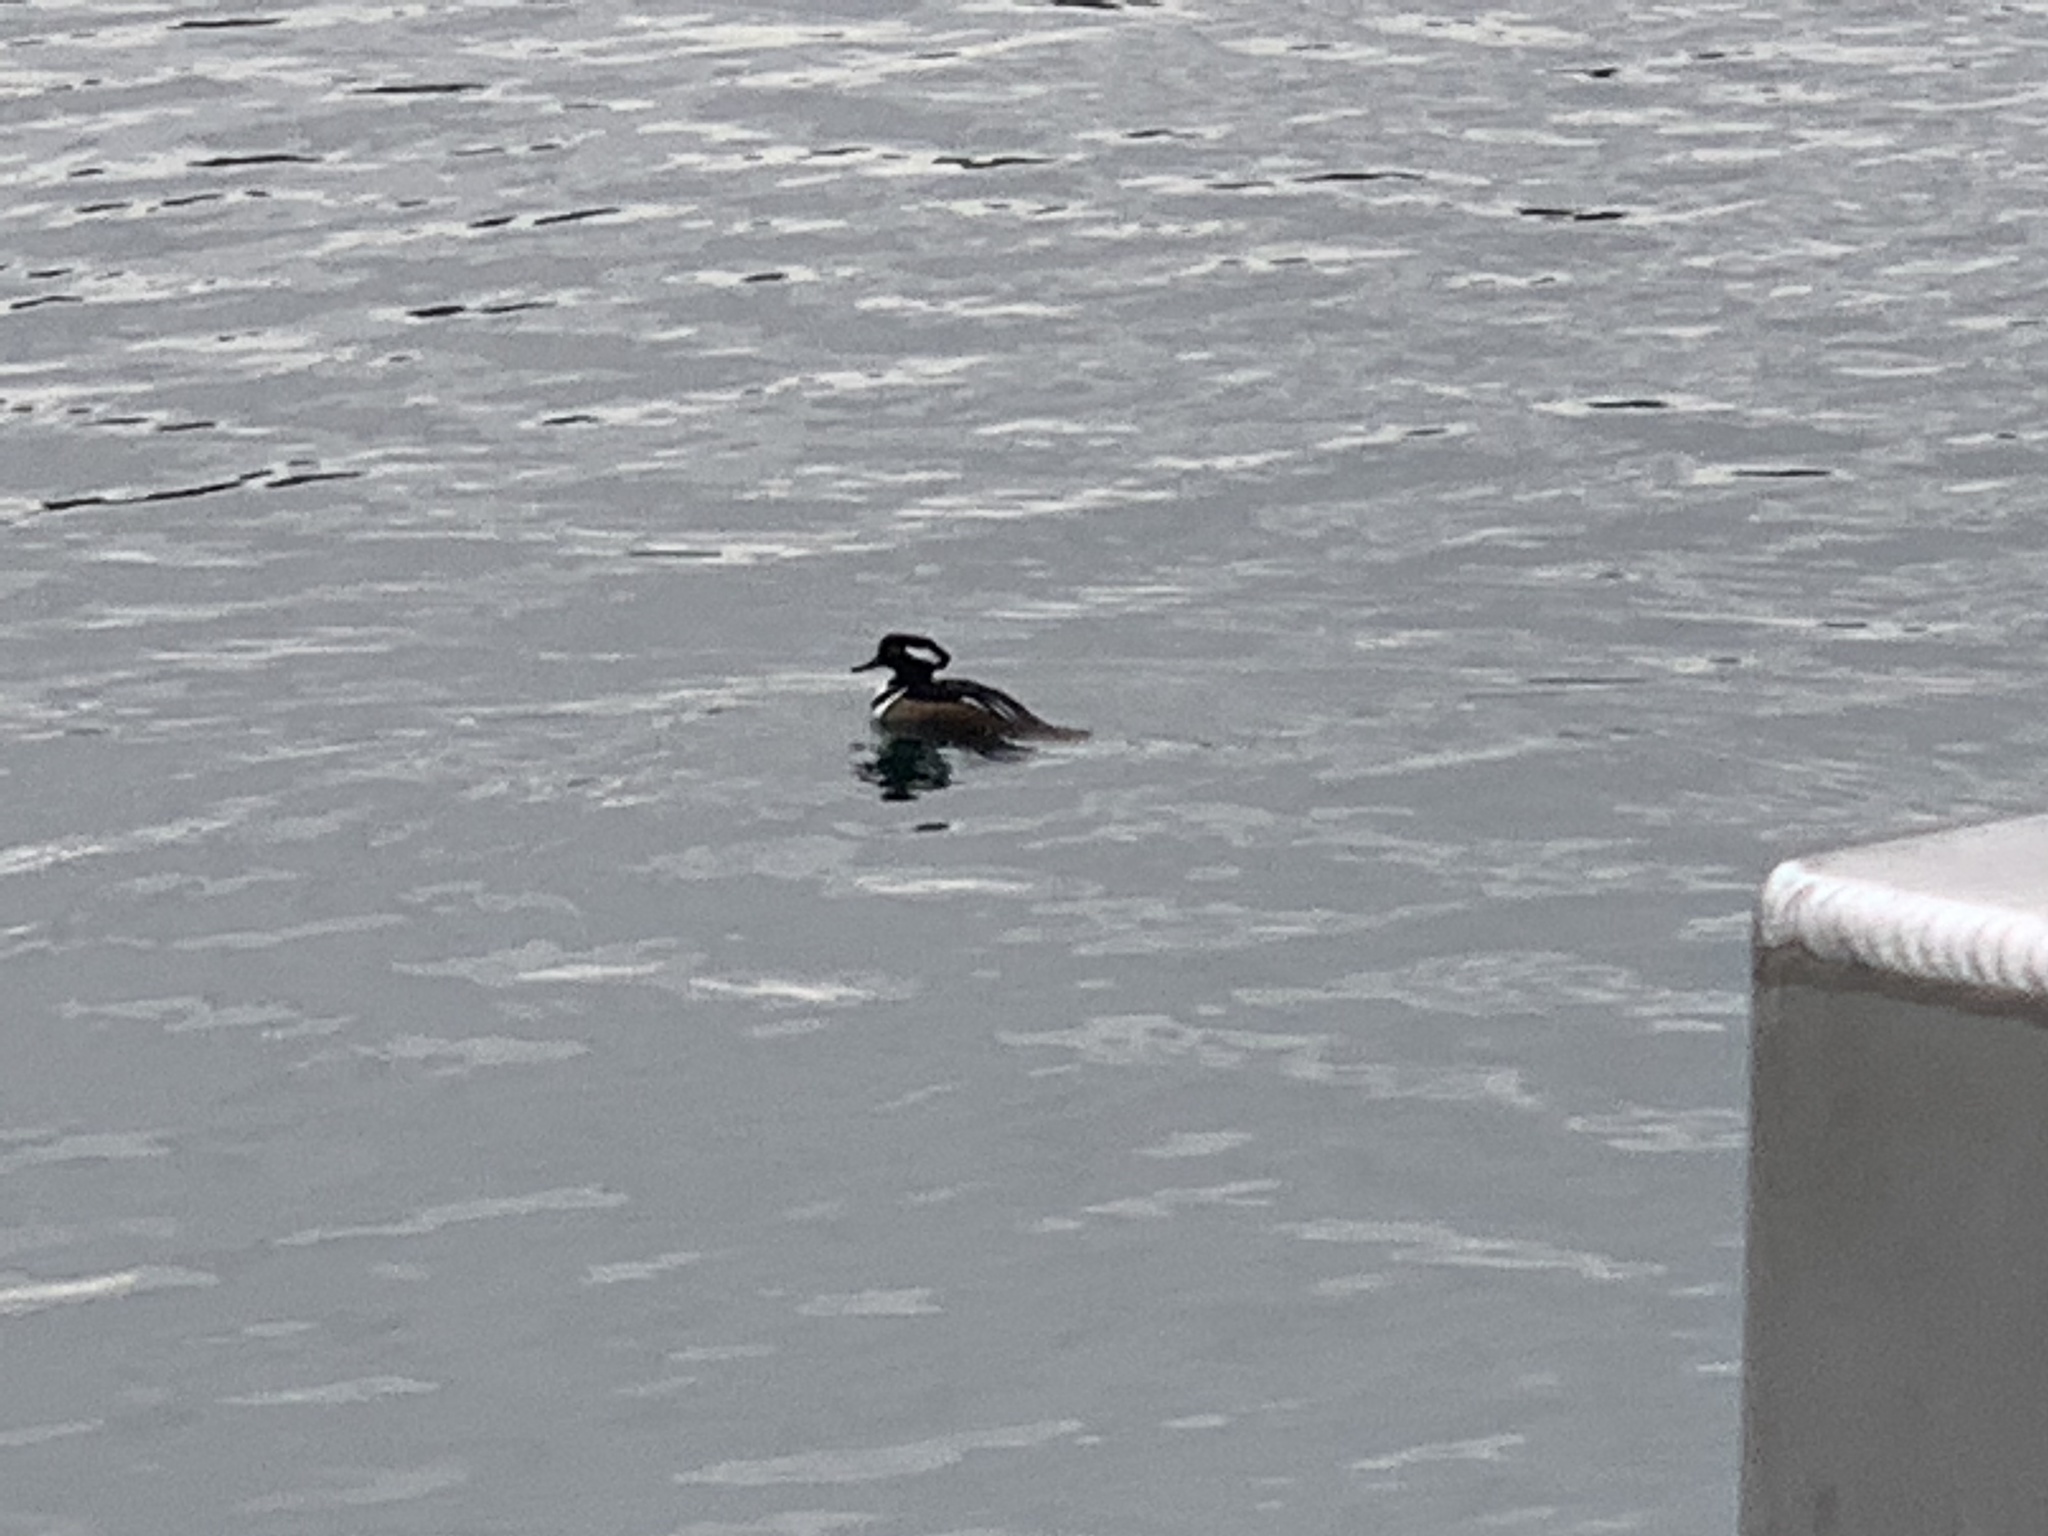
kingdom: Animalia
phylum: Chordata
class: Aves
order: Anseriformes
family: Anatidae
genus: Lophodytes
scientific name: Lophodytes cucullatus
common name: Hooded merganser
